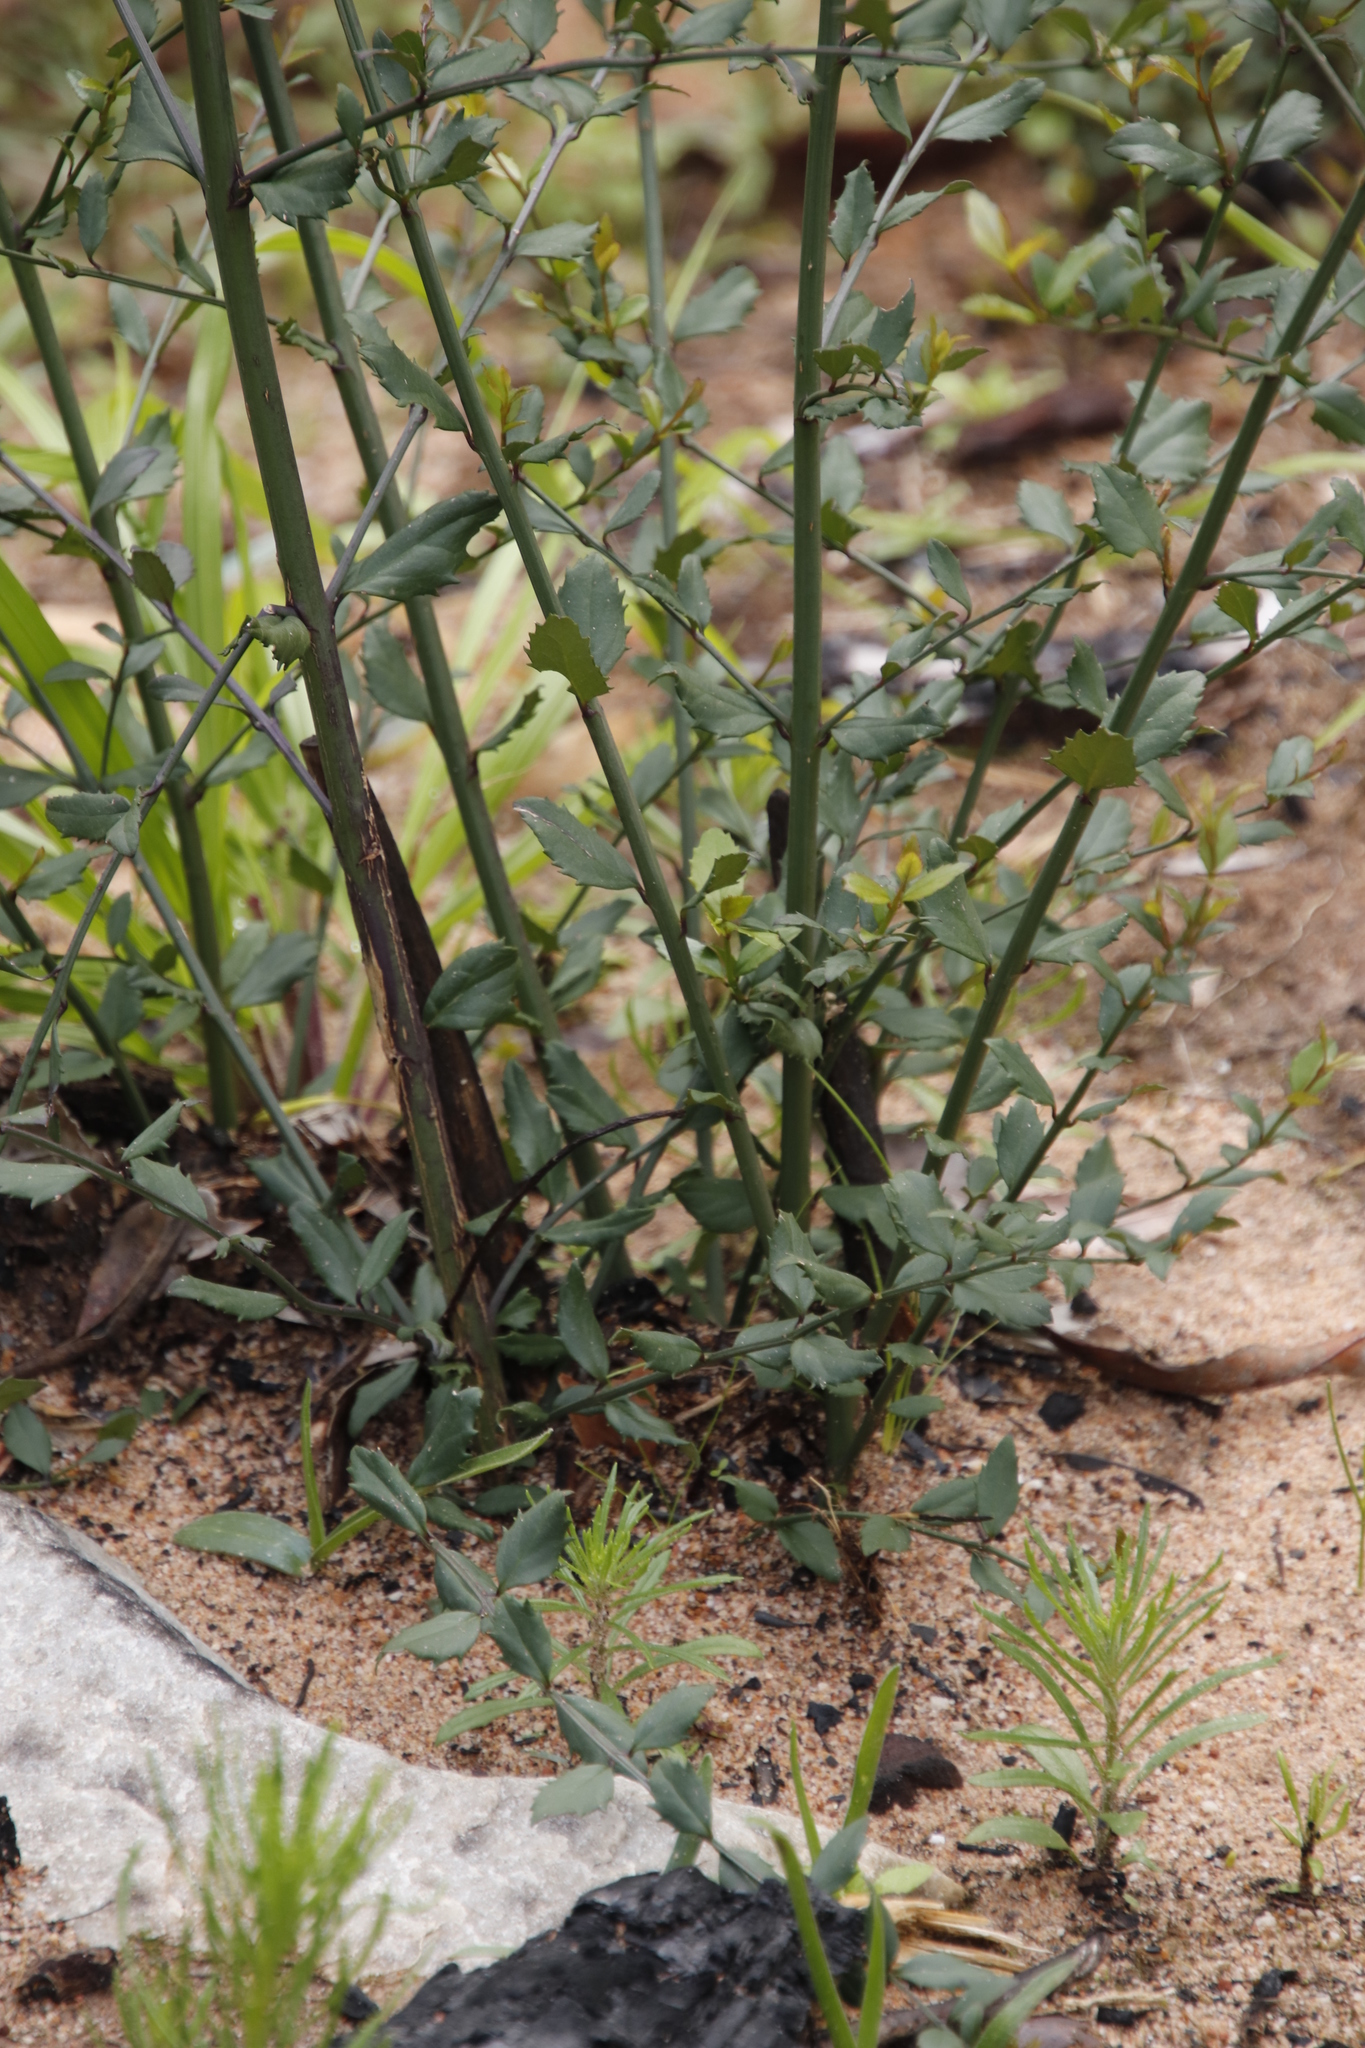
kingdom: Plantae
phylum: Tracheophyta
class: Magnoliopsida
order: Lamiales
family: Stilbaceae
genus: Halleria
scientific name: Halleria elliptica
